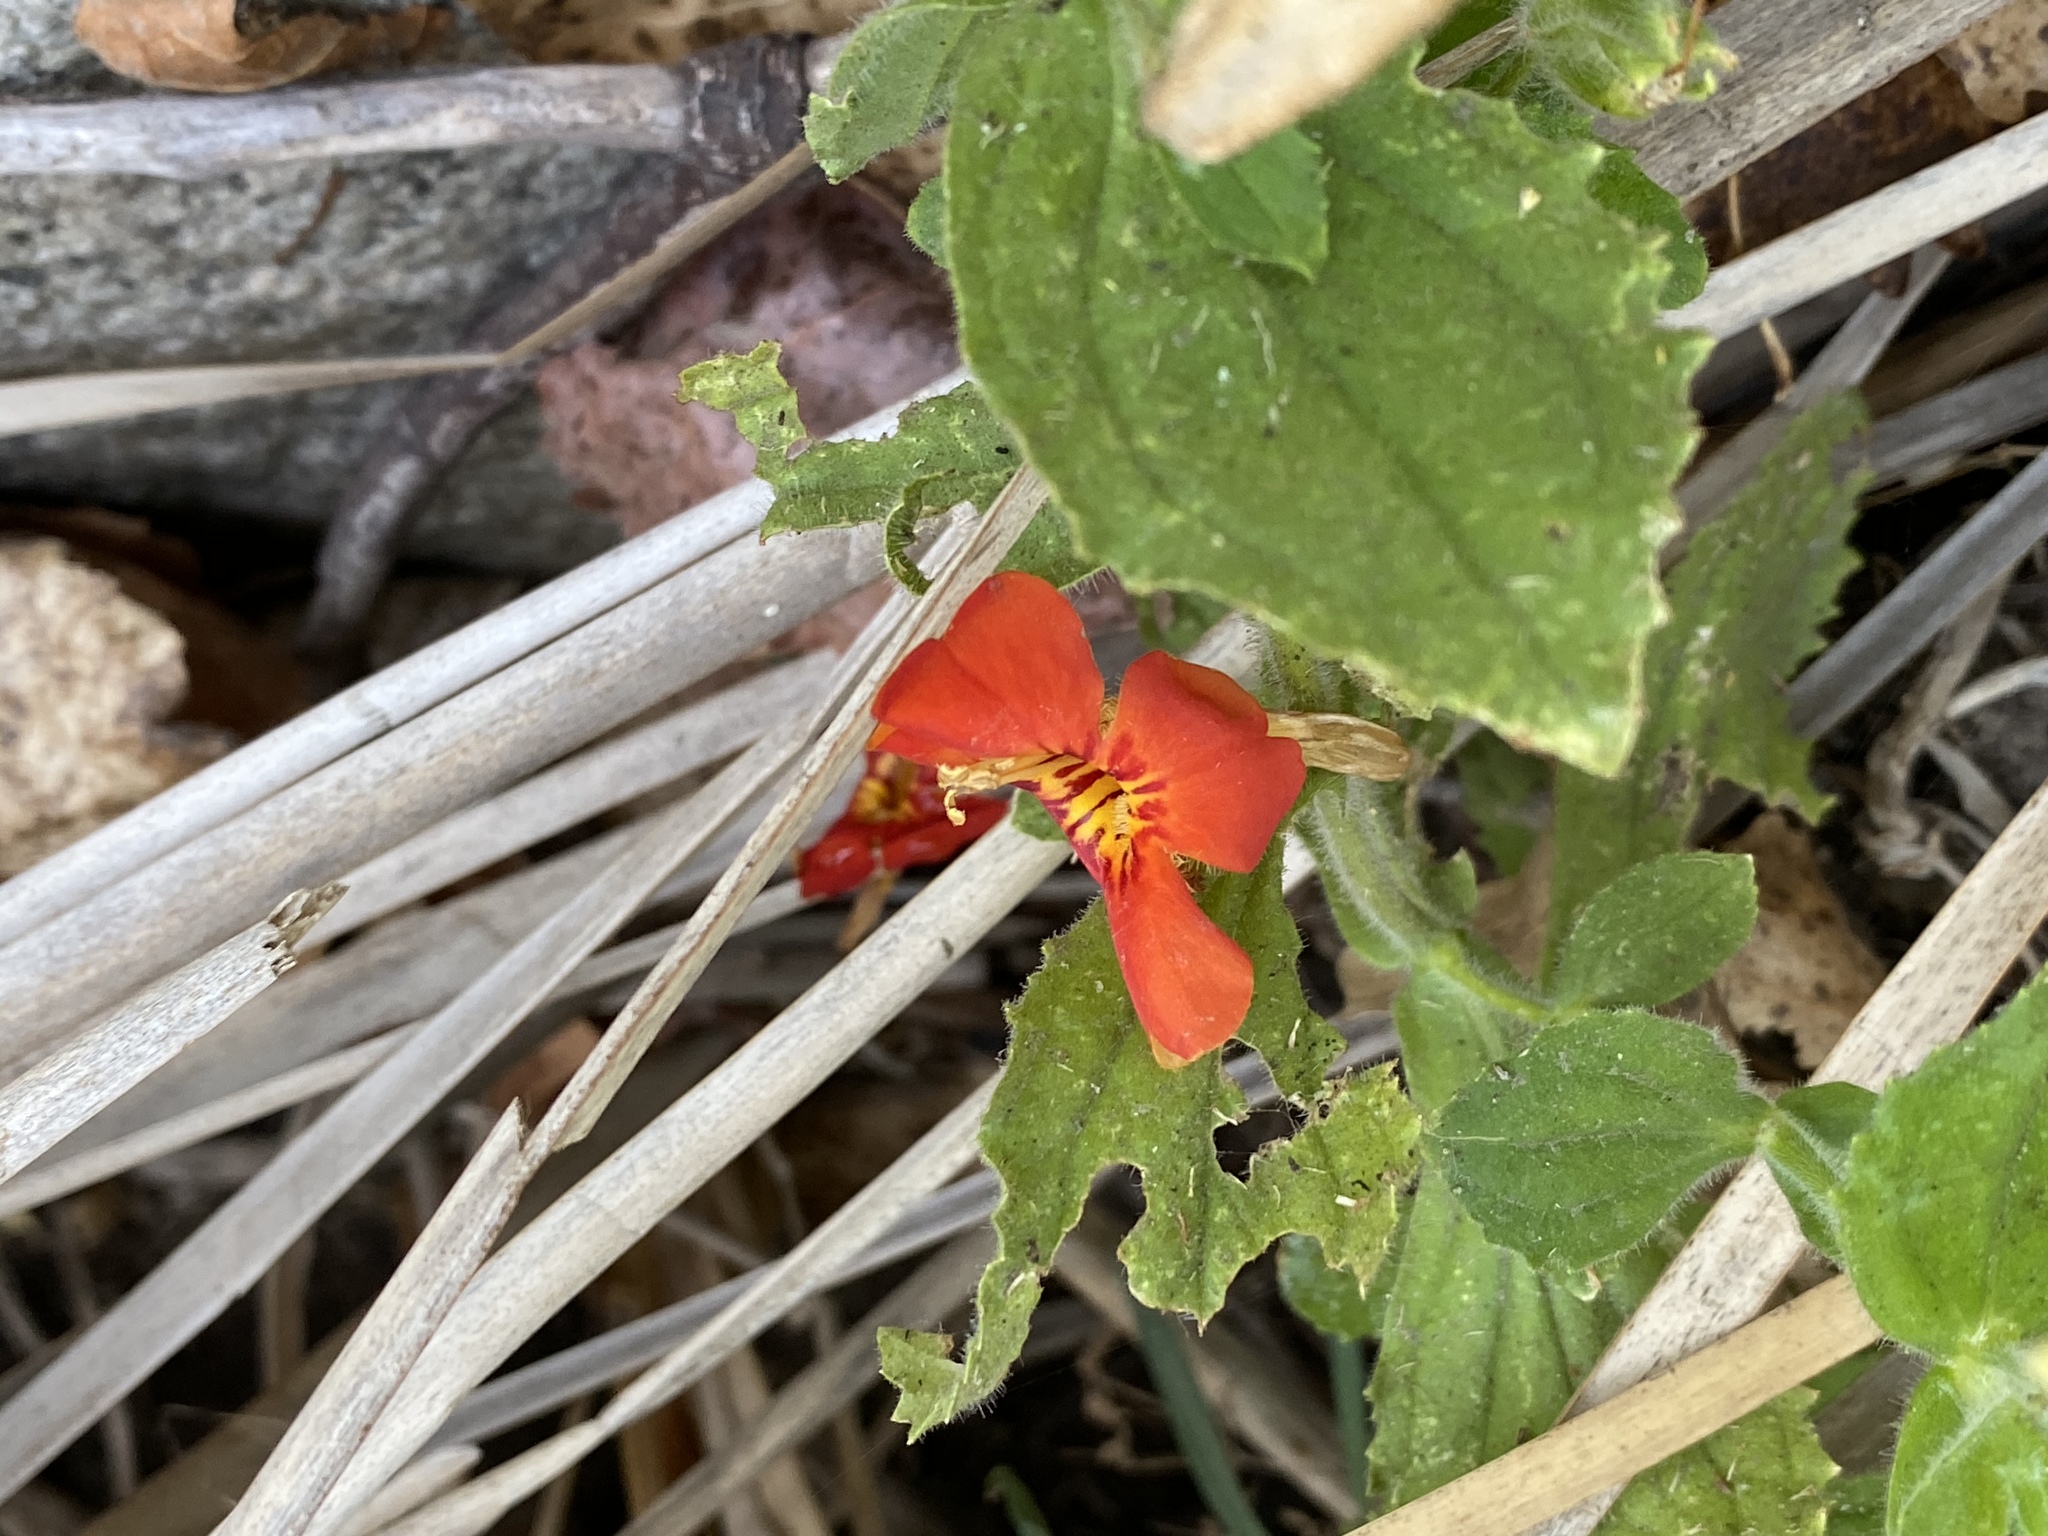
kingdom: Plantae
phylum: Tracheophyta
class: Magnoliopsida
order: Lamiales
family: Phrymaceae
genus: Erythranthe
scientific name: Erythranthe cardinalis
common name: Scarlet monkey-flower
